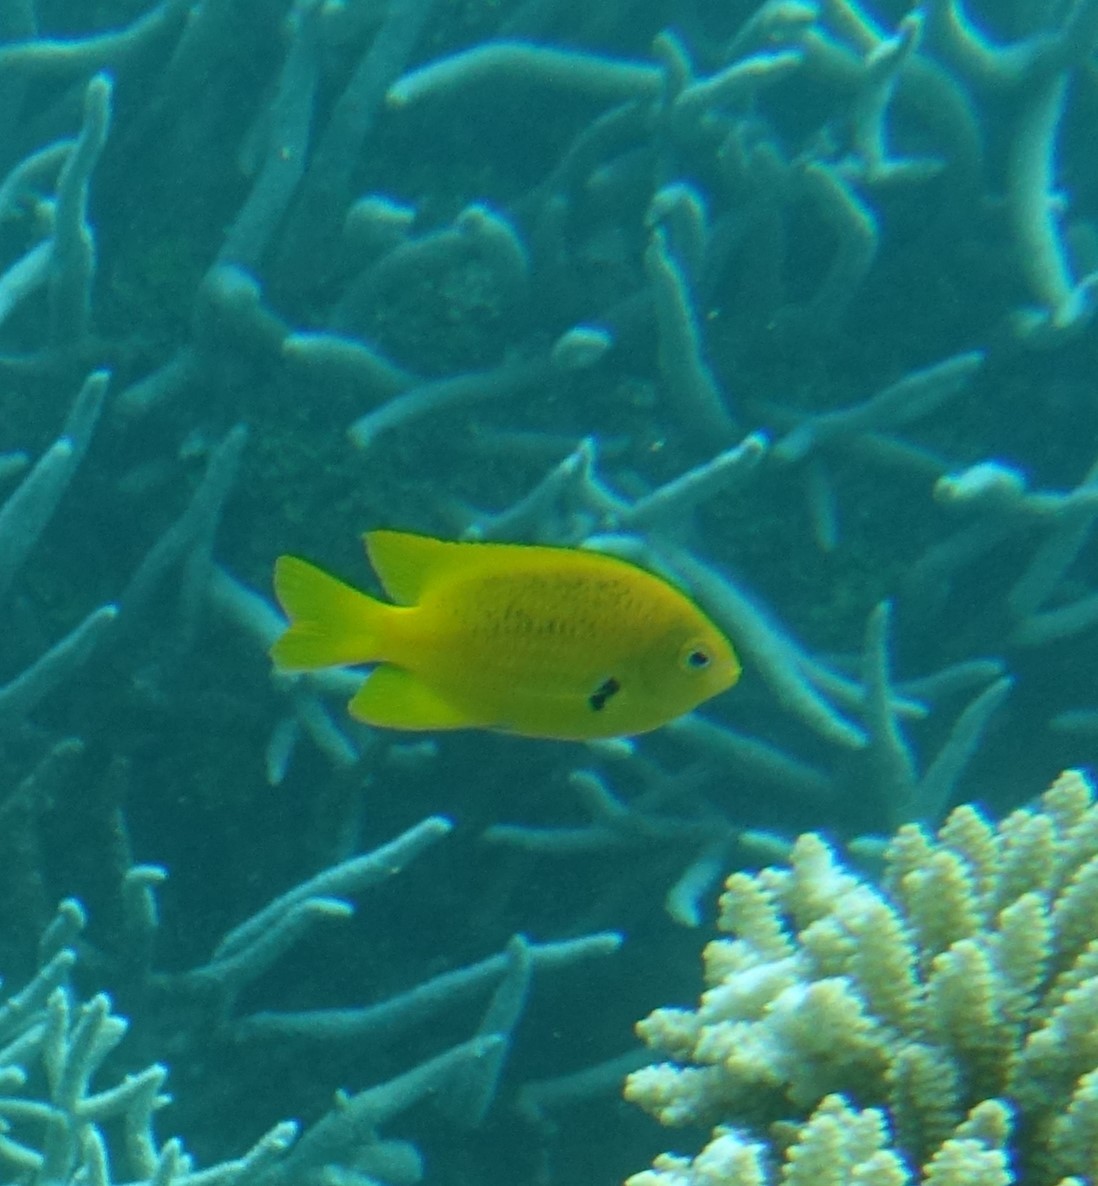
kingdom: Animalia
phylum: Chordata
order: Perciformes
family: Pomacentridae
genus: Pomacentrus
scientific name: Pomacentrus sulfureus
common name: Sulfur damsel
